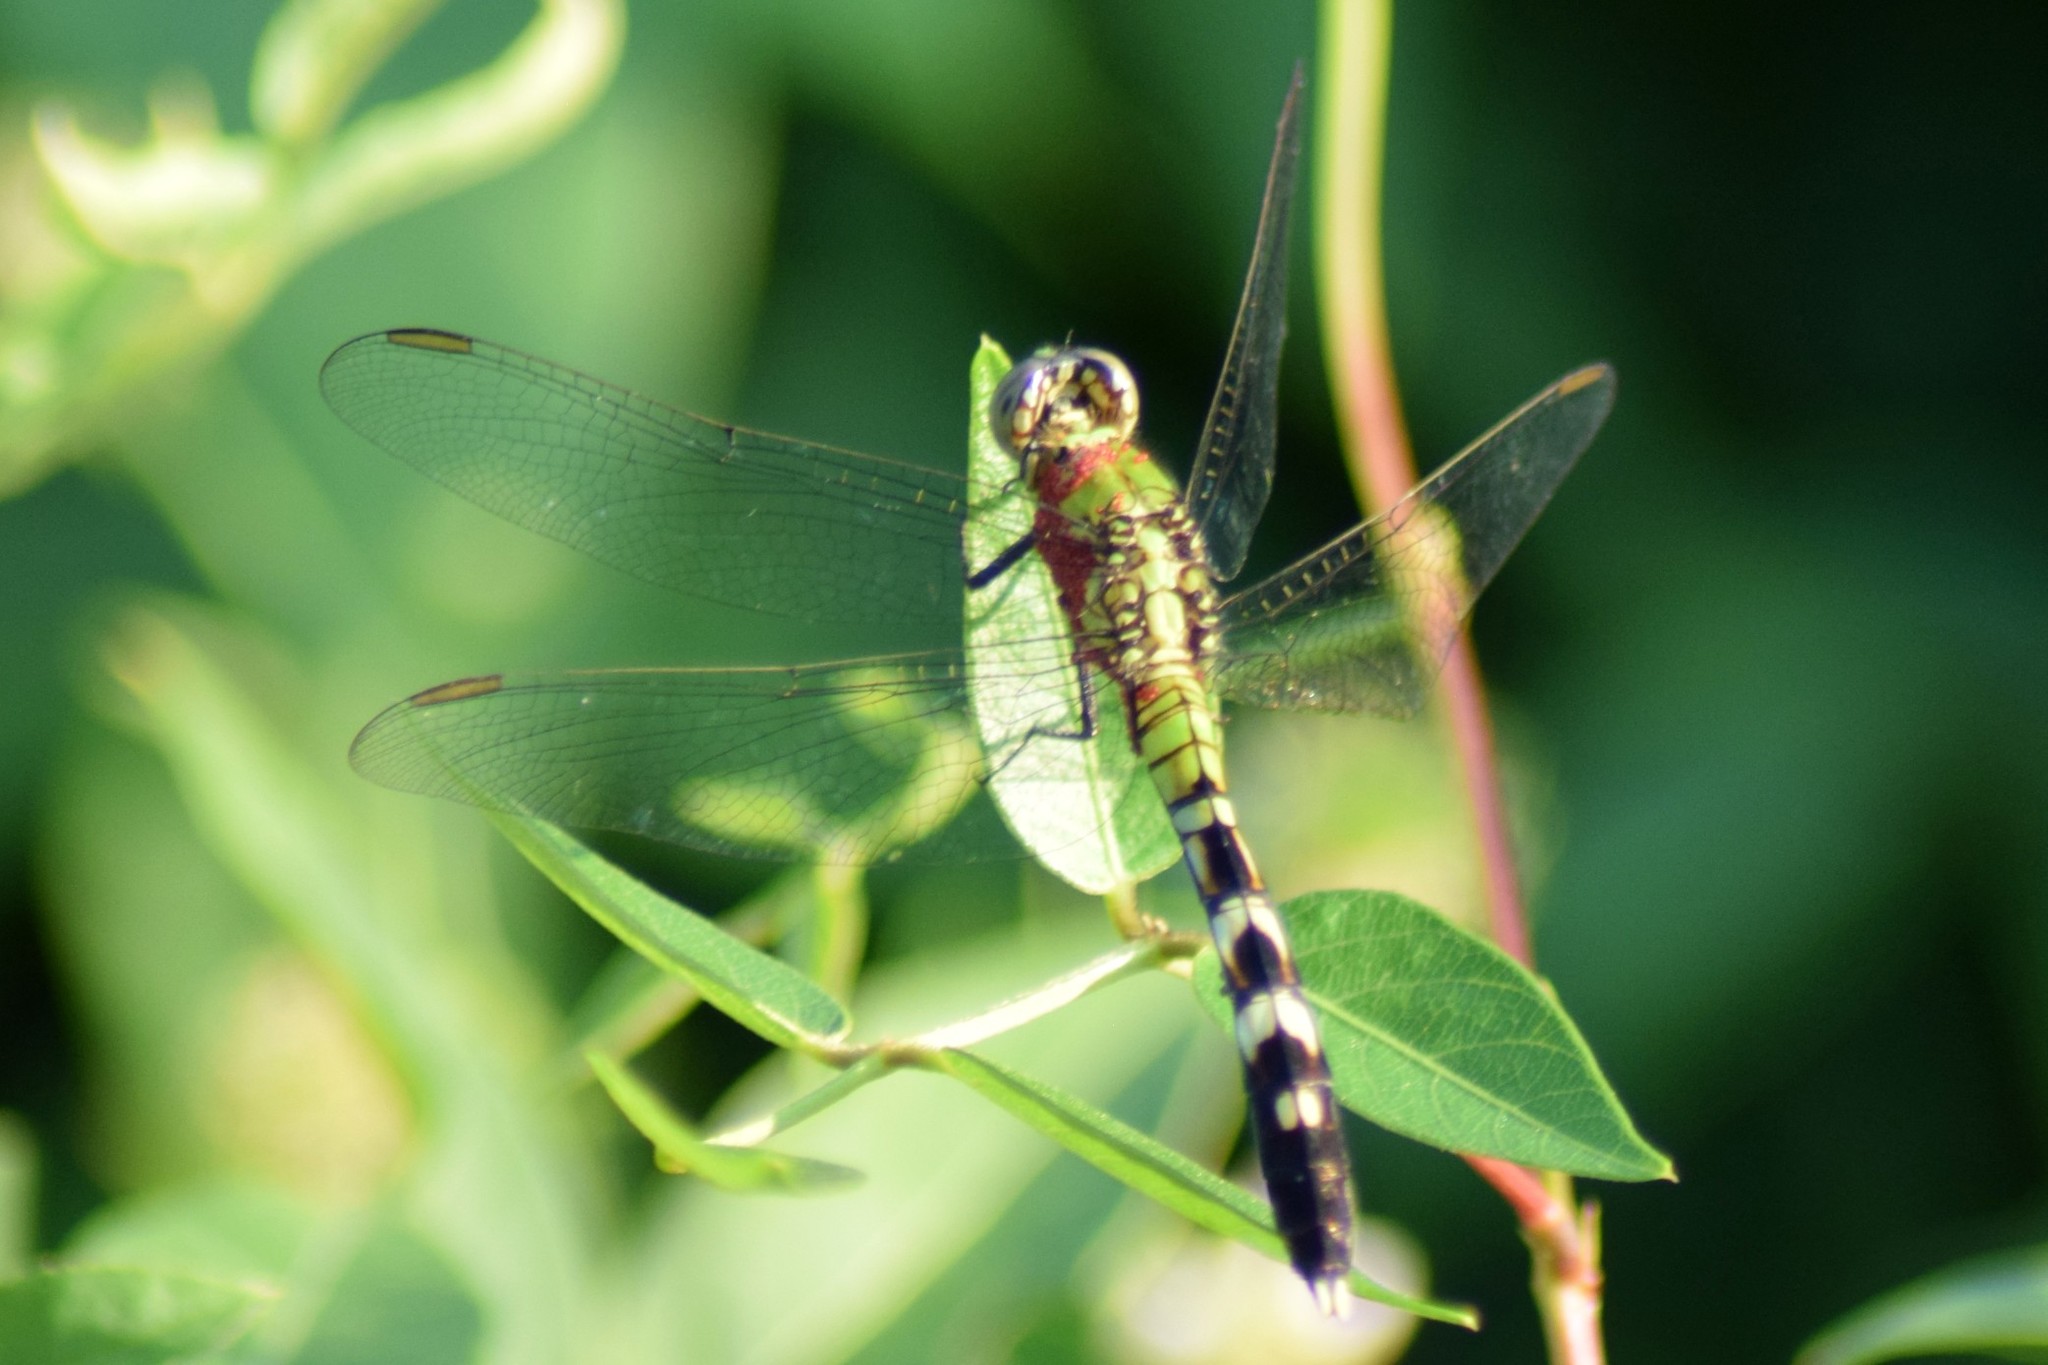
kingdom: Animalia
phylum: Arthropoda
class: Insecta
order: Odonata
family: Libellulidae
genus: Erythemis
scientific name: Erythemis simplicicollis
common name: Eastern pondhawk
